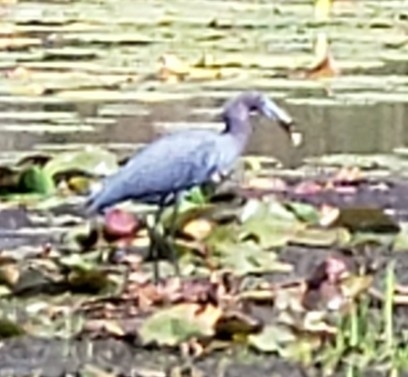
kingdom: Animalia
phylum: Chordata
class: Aves
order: Pelecaniformes
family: Ardeidae
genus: Egretta
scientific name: Egretta caerulea
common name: Little blue heron
